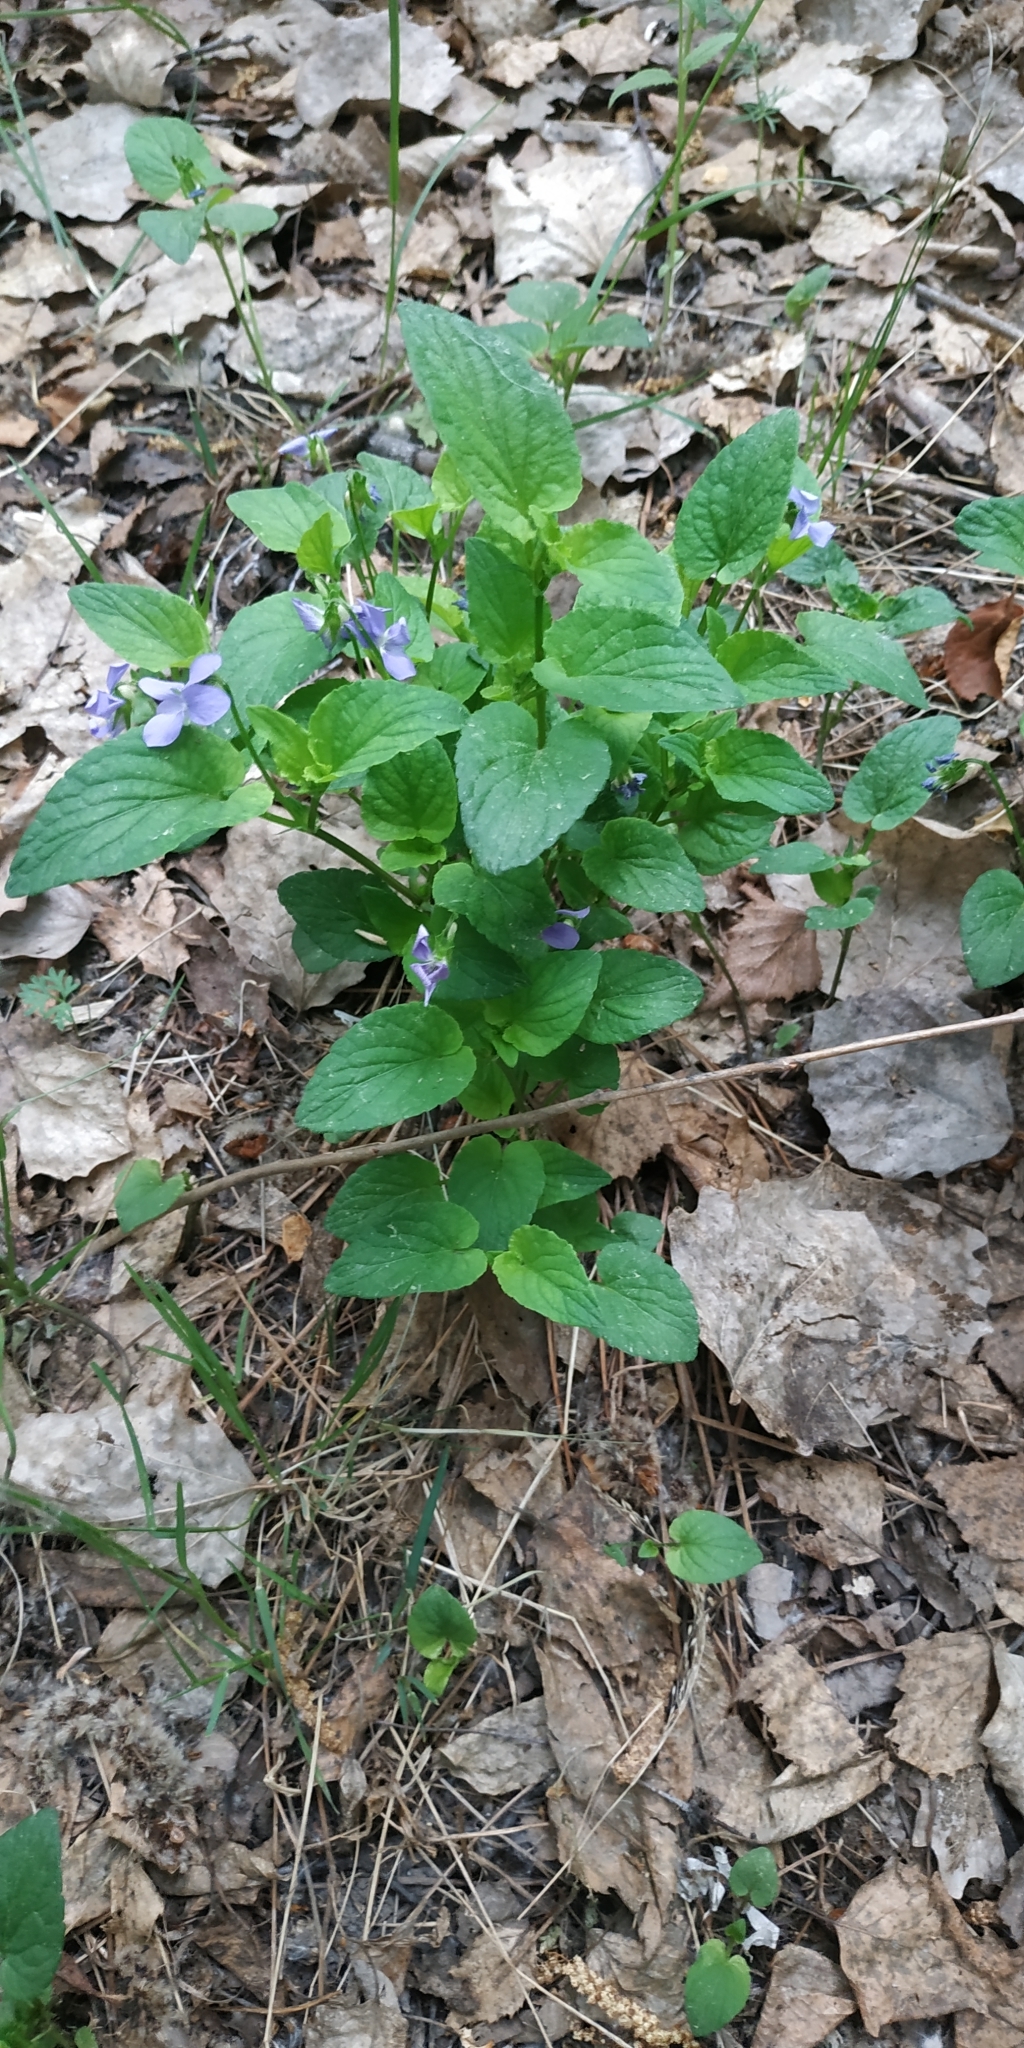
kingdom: Plantae
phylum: Tracheophyta
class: Magnoliopsida
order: Malpighiales
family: Violaceae
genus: Viola
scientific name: Viola canina
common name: Heath dog-violet
